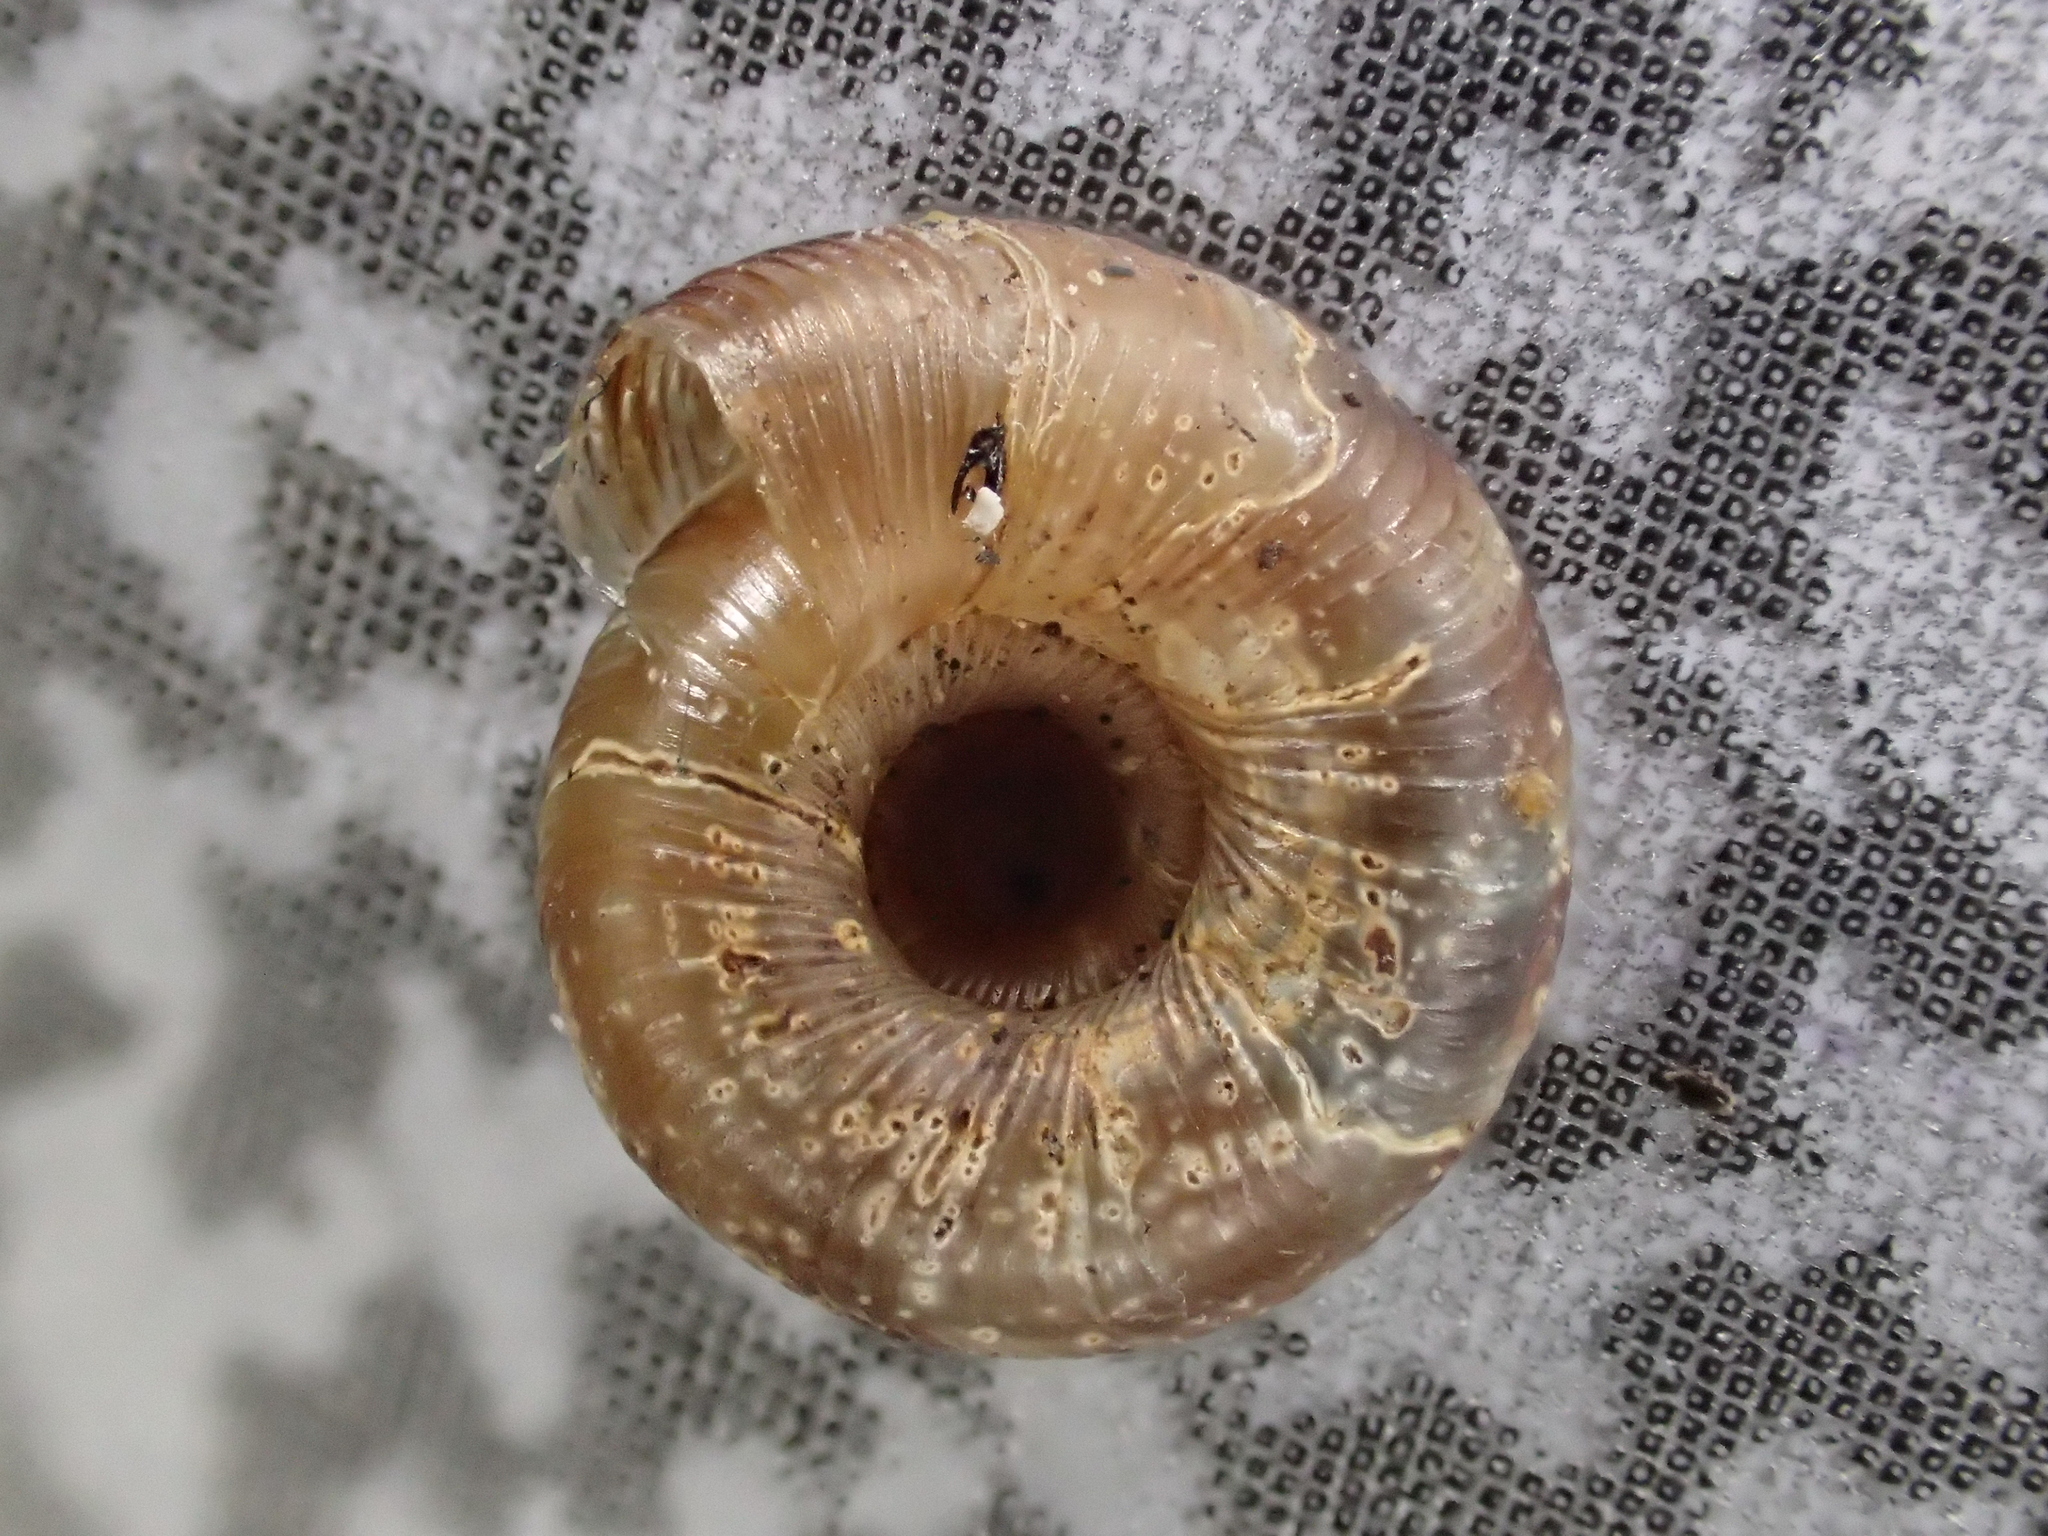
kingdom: Animalia
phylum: Mollusca
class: Gastropoda
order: Stylommatophora
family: Discidae
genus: Discus
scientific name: Discus rotundatus
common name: Rounded snail
